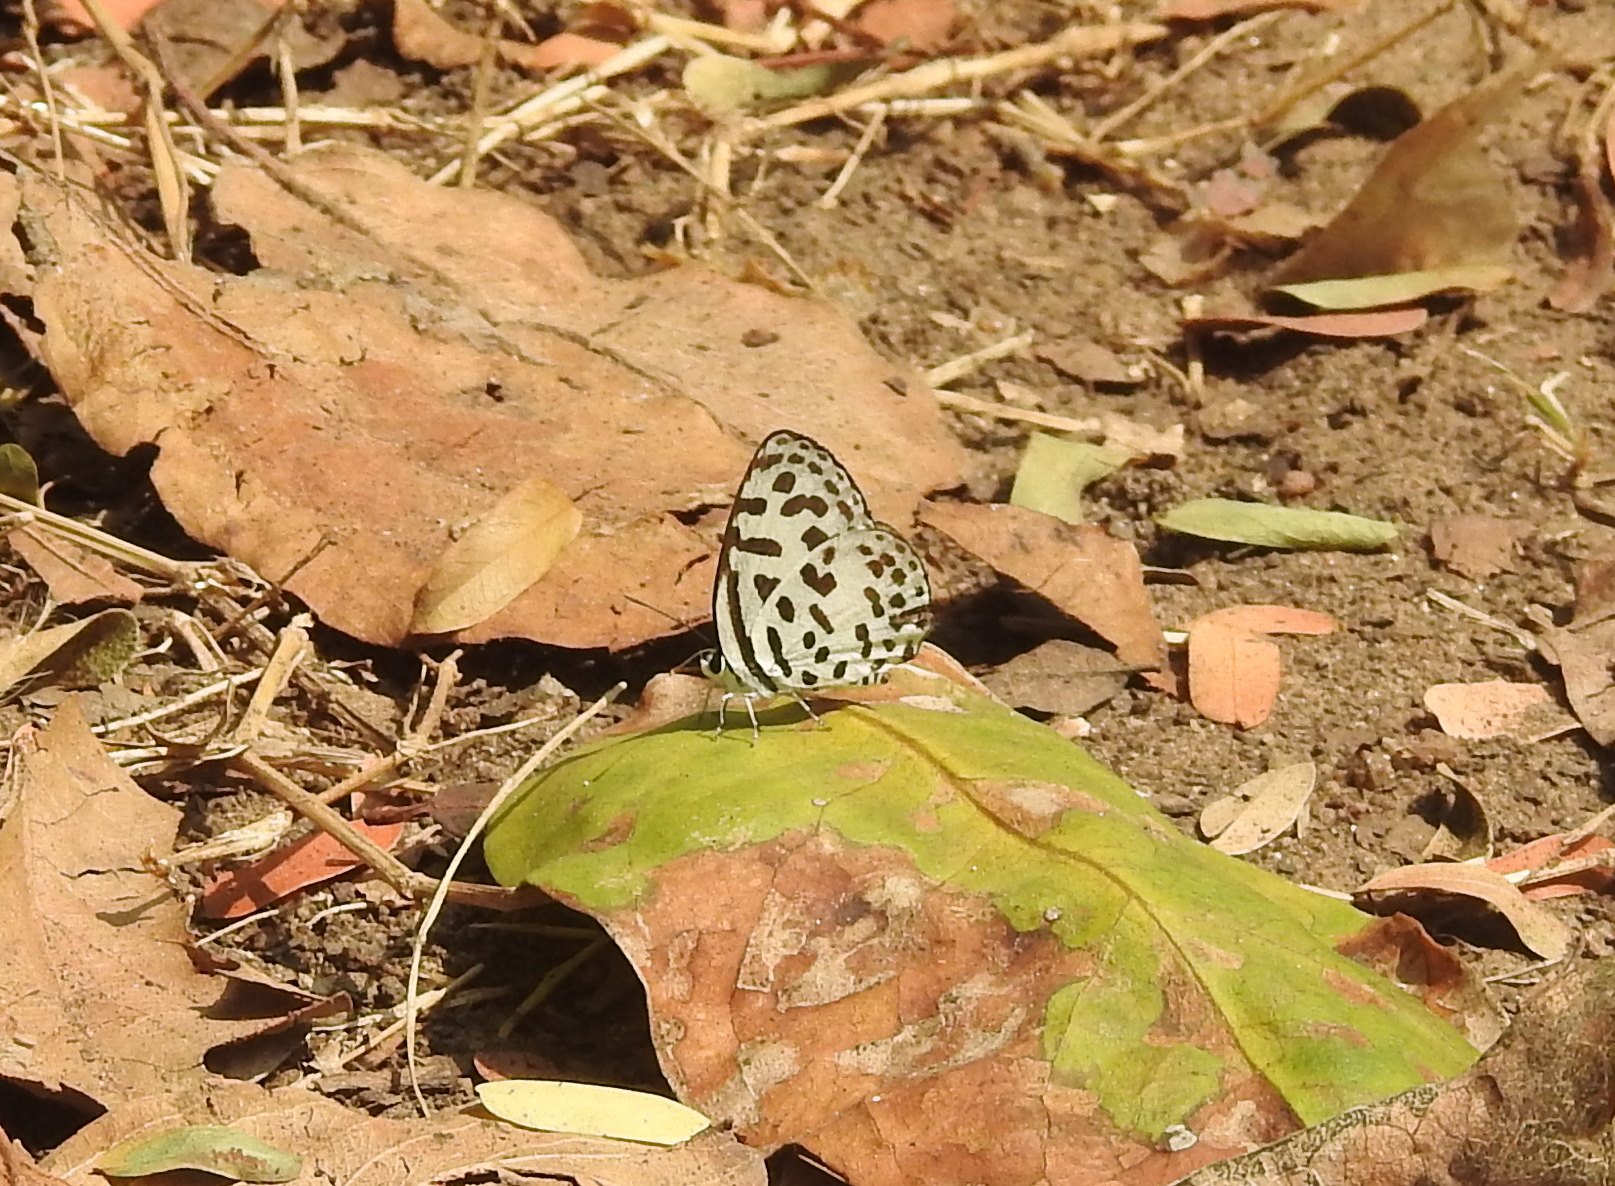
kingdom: Animalia
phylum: Arthropoda
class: Insecta
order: Lepidoptera
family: Lycaenidae
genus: Castalius
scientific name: Castalius rosimon
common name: Common pierrot
